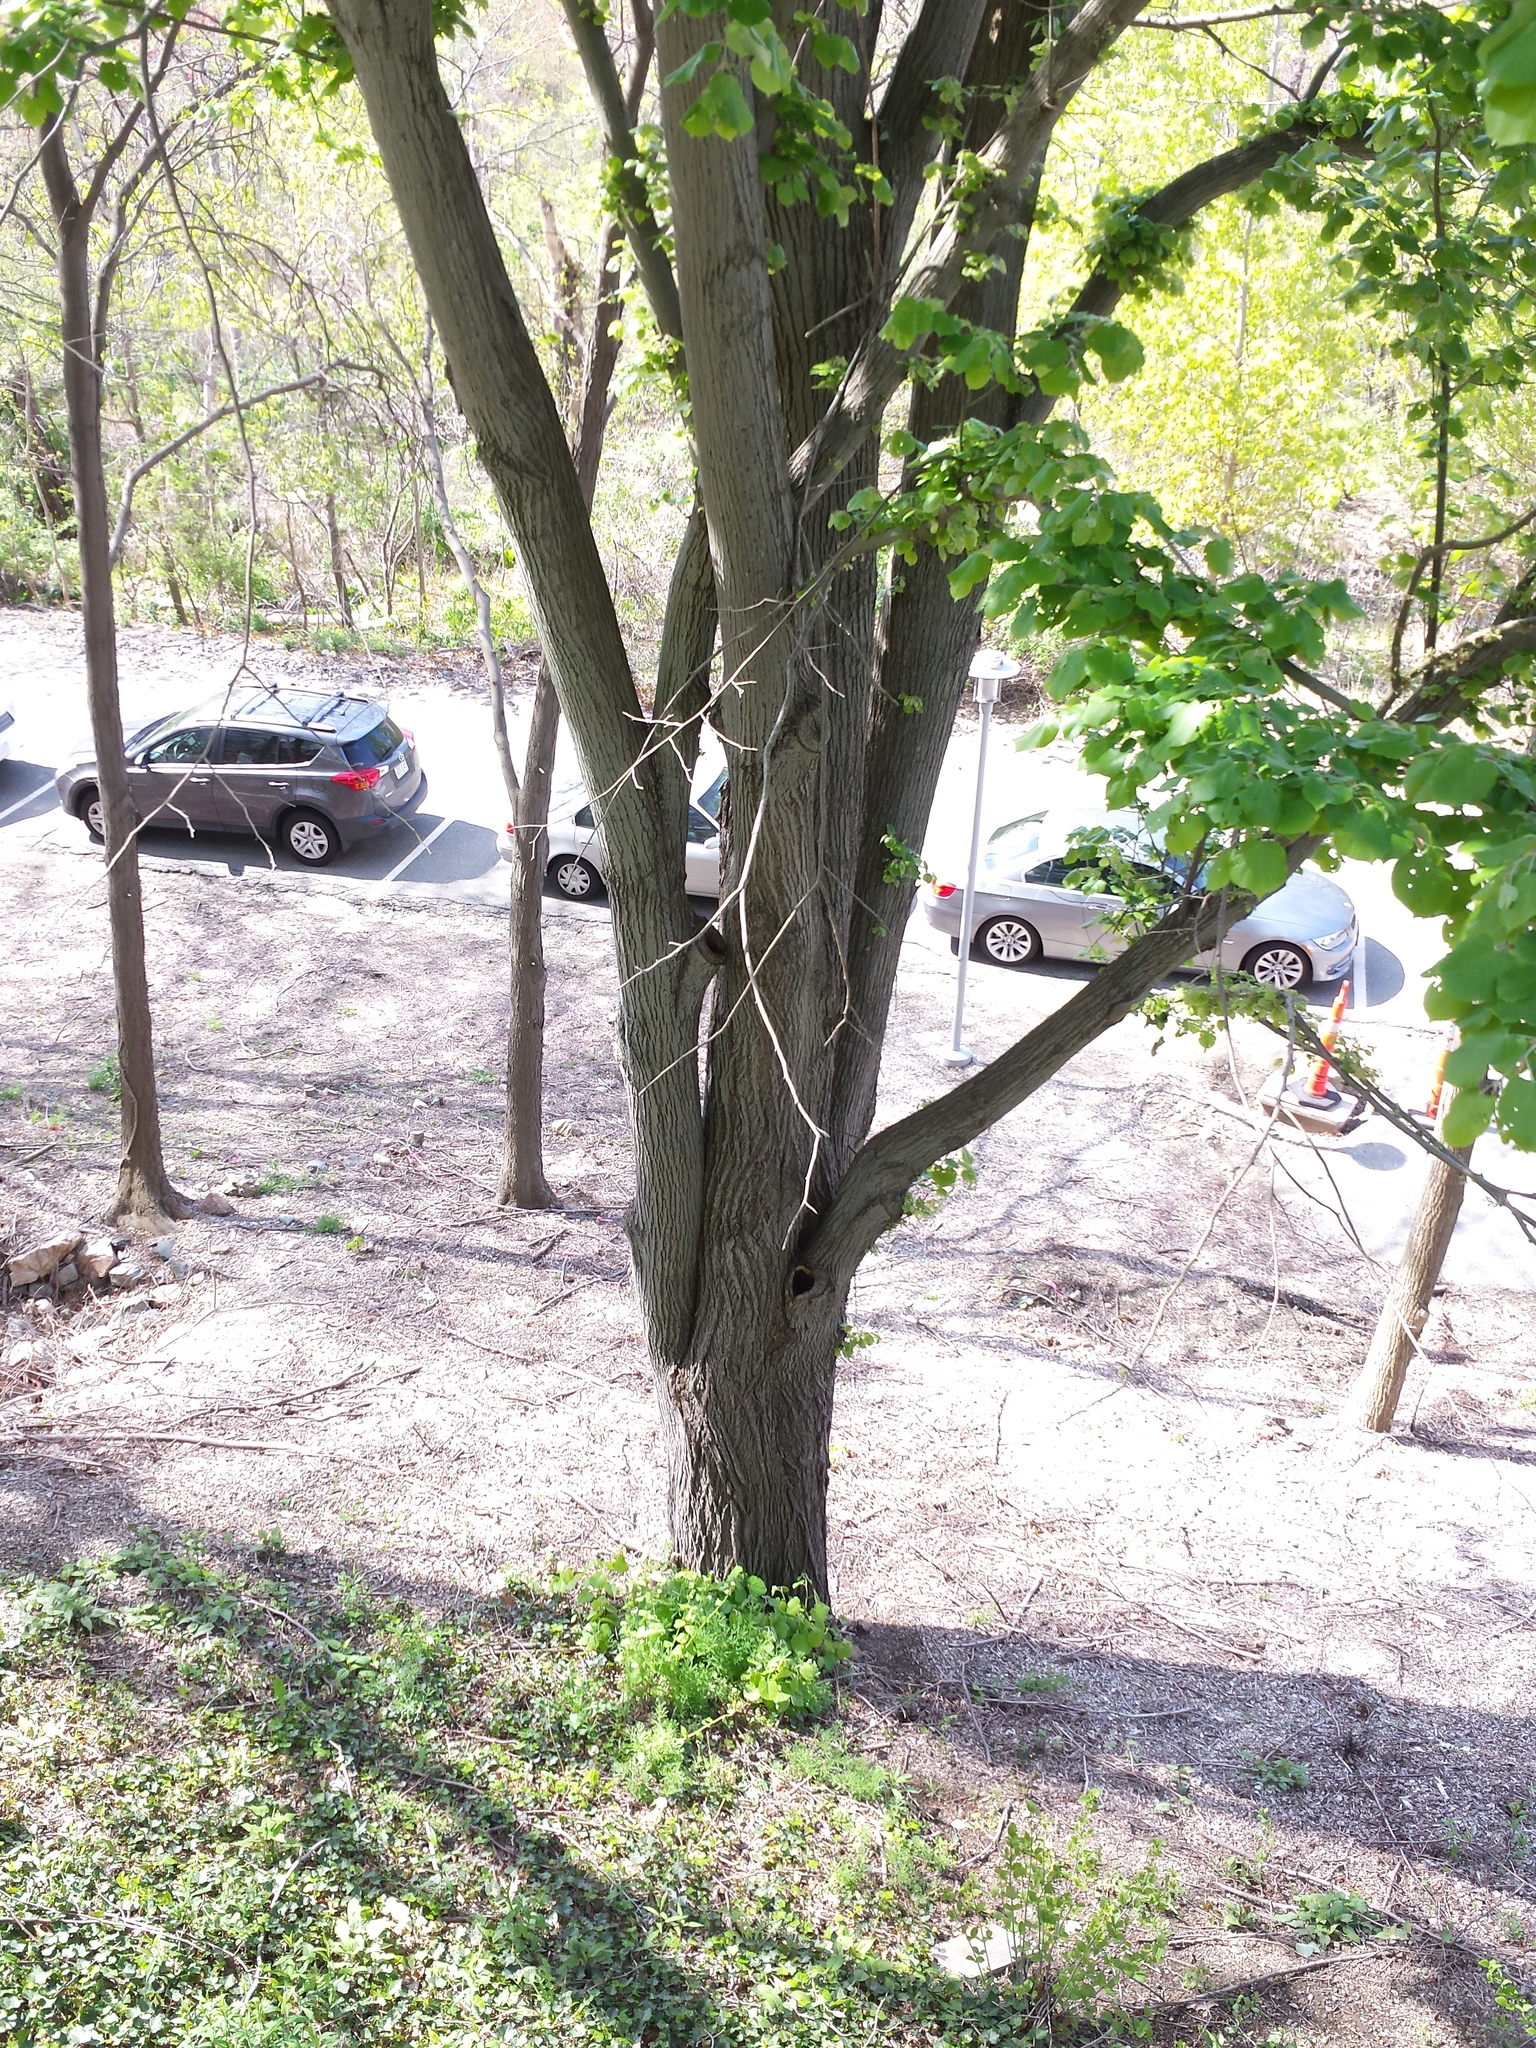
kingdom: Plantae
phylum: Tracheophyta
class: Magnoliopsida
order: Malvales
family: Malvaceae
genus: Tilia
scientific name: Tilia cordata
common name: Small-leaved lime
